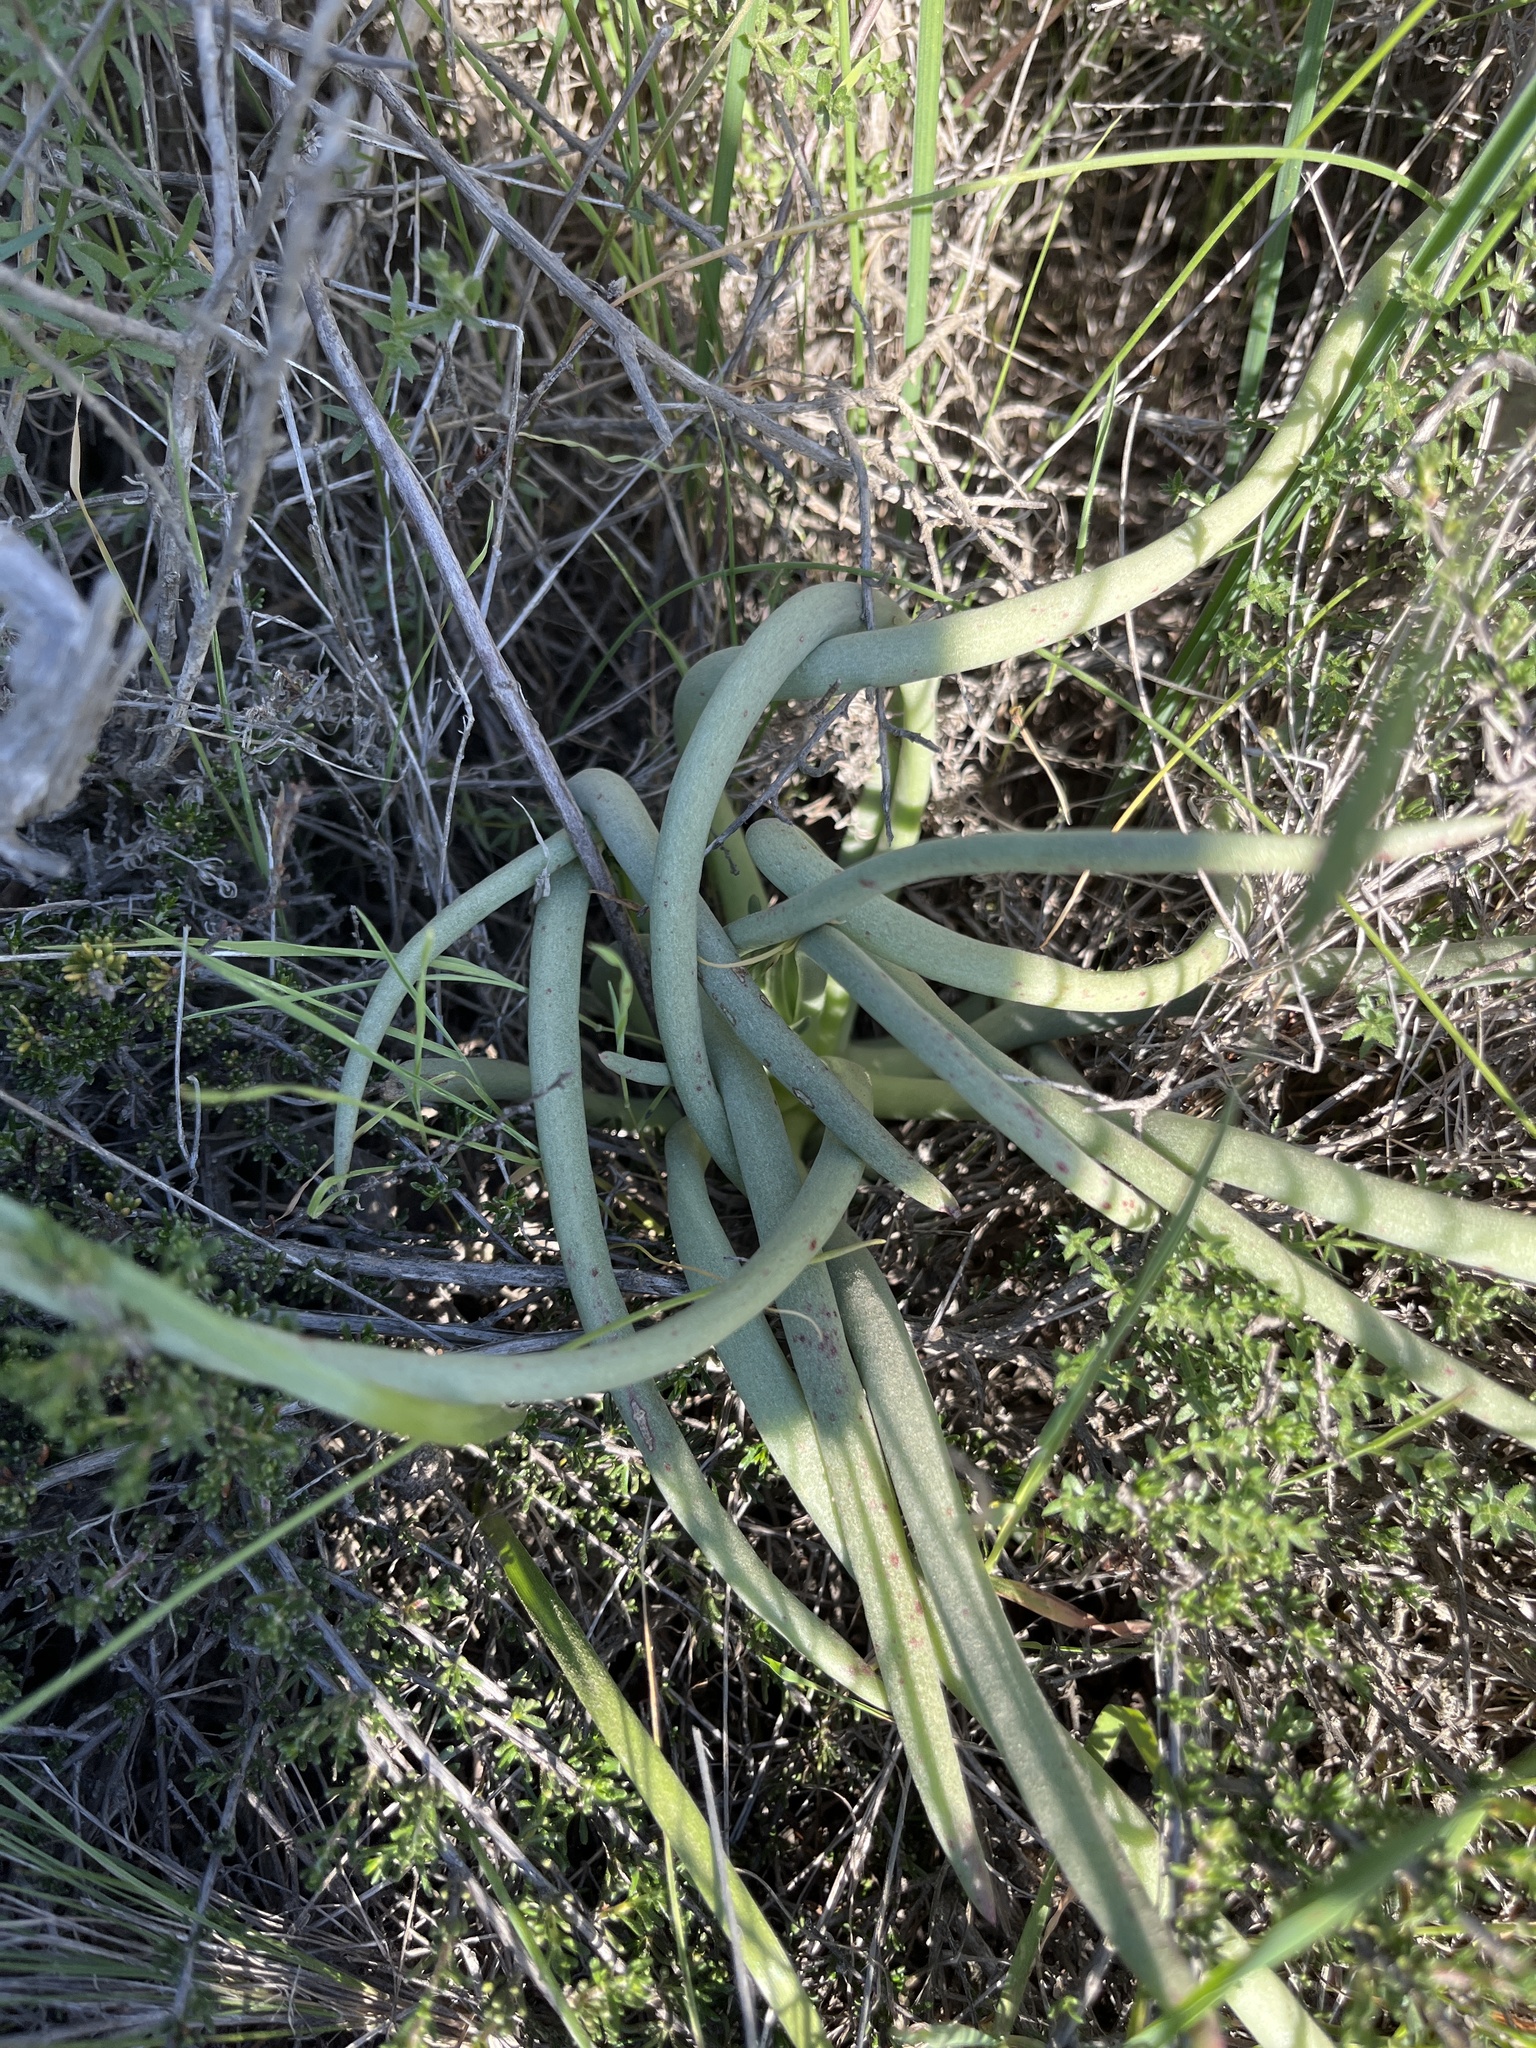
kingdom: Plantae
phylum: Tracheophyta
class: Magnoliopsida
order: Saxifragales
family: Crassulaceae
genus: Dudleya
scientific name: Dudleya edulis
